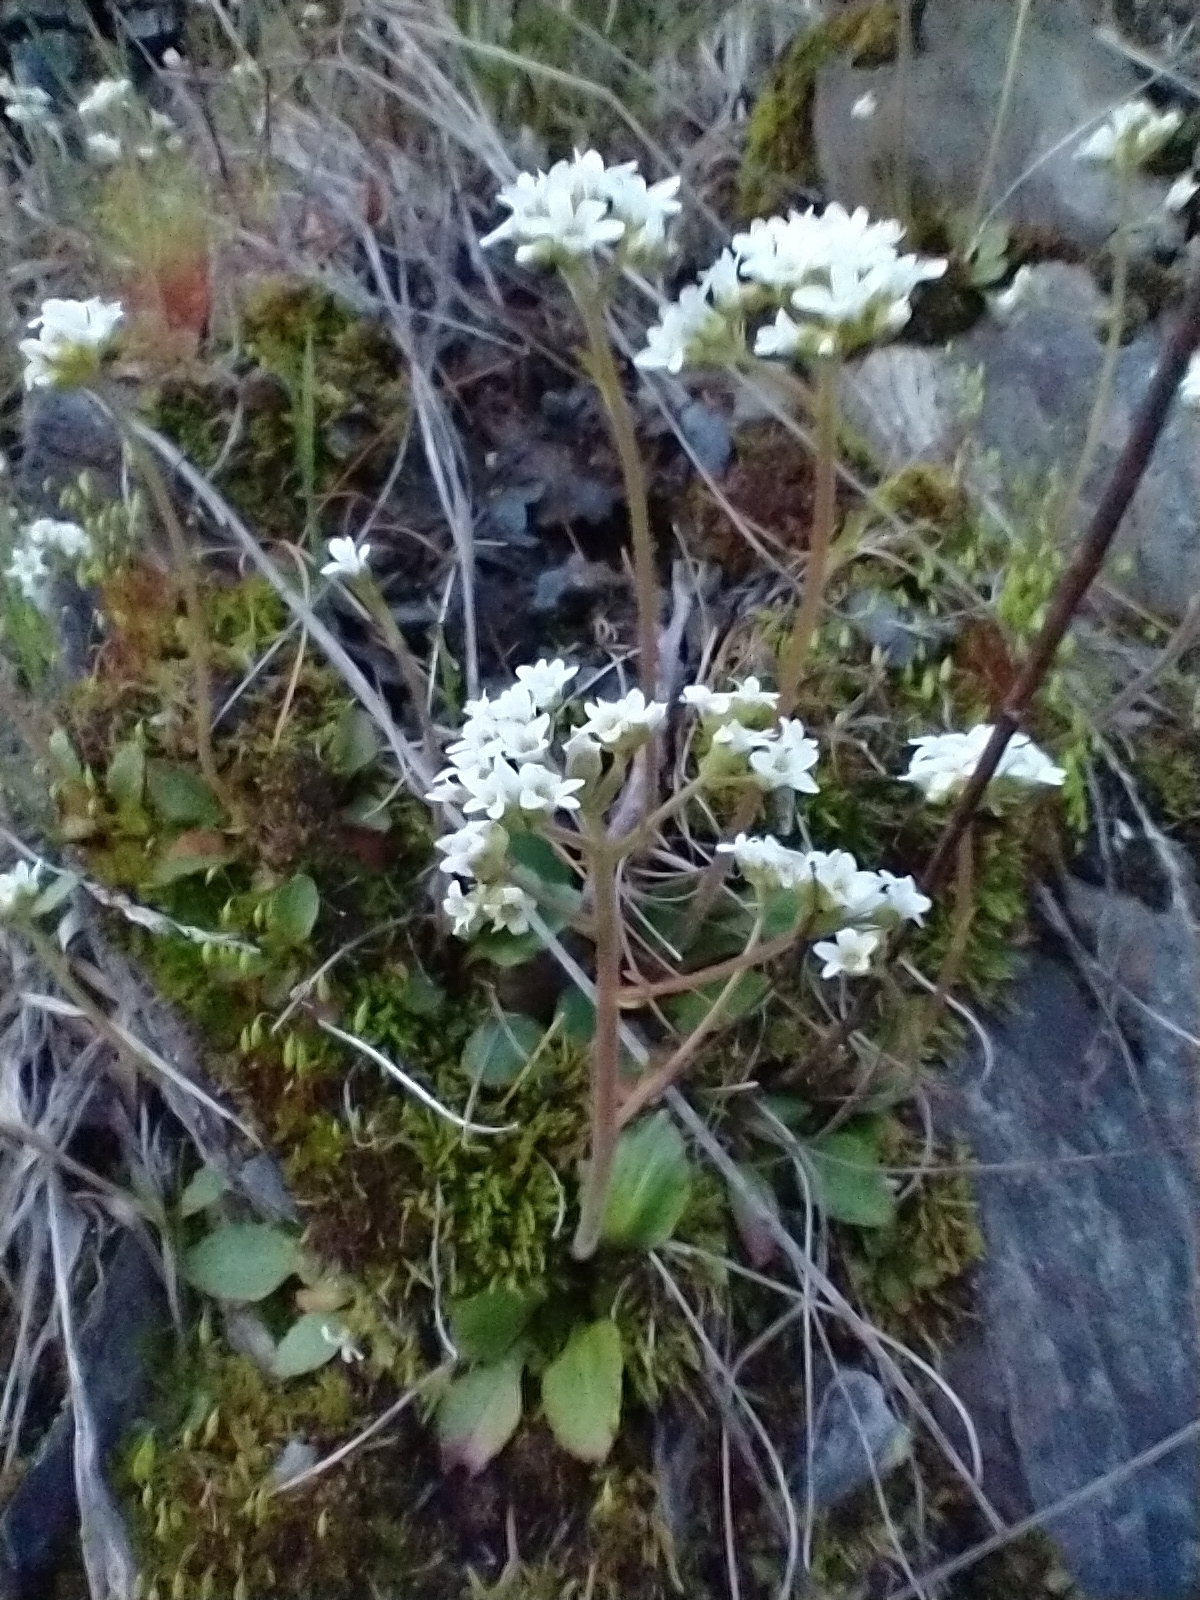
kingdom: Plantae
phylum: Tracheophyta
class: Magnoliopsida
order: Saxifragales
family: Saxifragaceae
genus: Micranthes
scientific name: Micranthes virginiensis
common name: Early saxifrage
